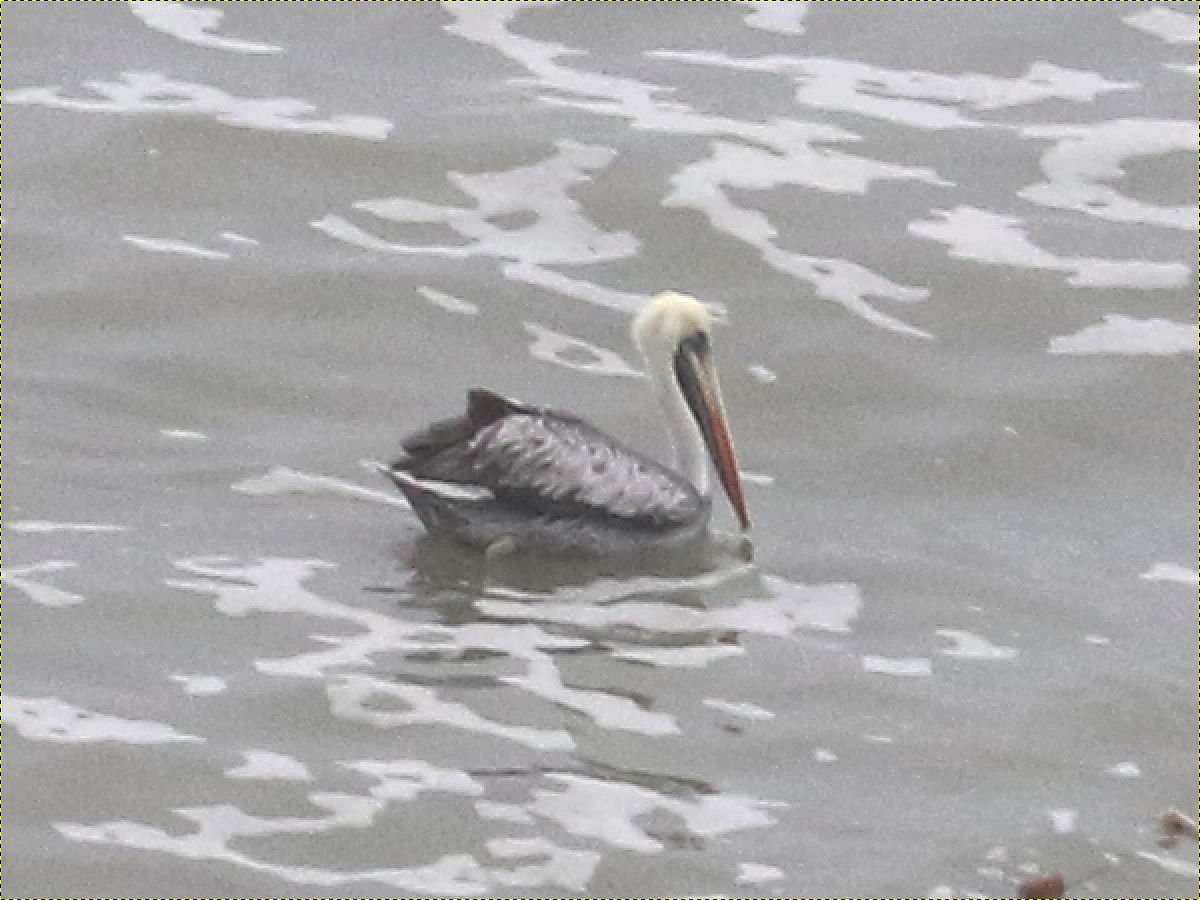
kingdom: Animalia
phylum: Chordata
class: Aves
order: Pelecaniformes
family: Pelecanidae
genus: Pelecanus
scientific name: Pelecanus thagus
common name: Peruvian pelican
